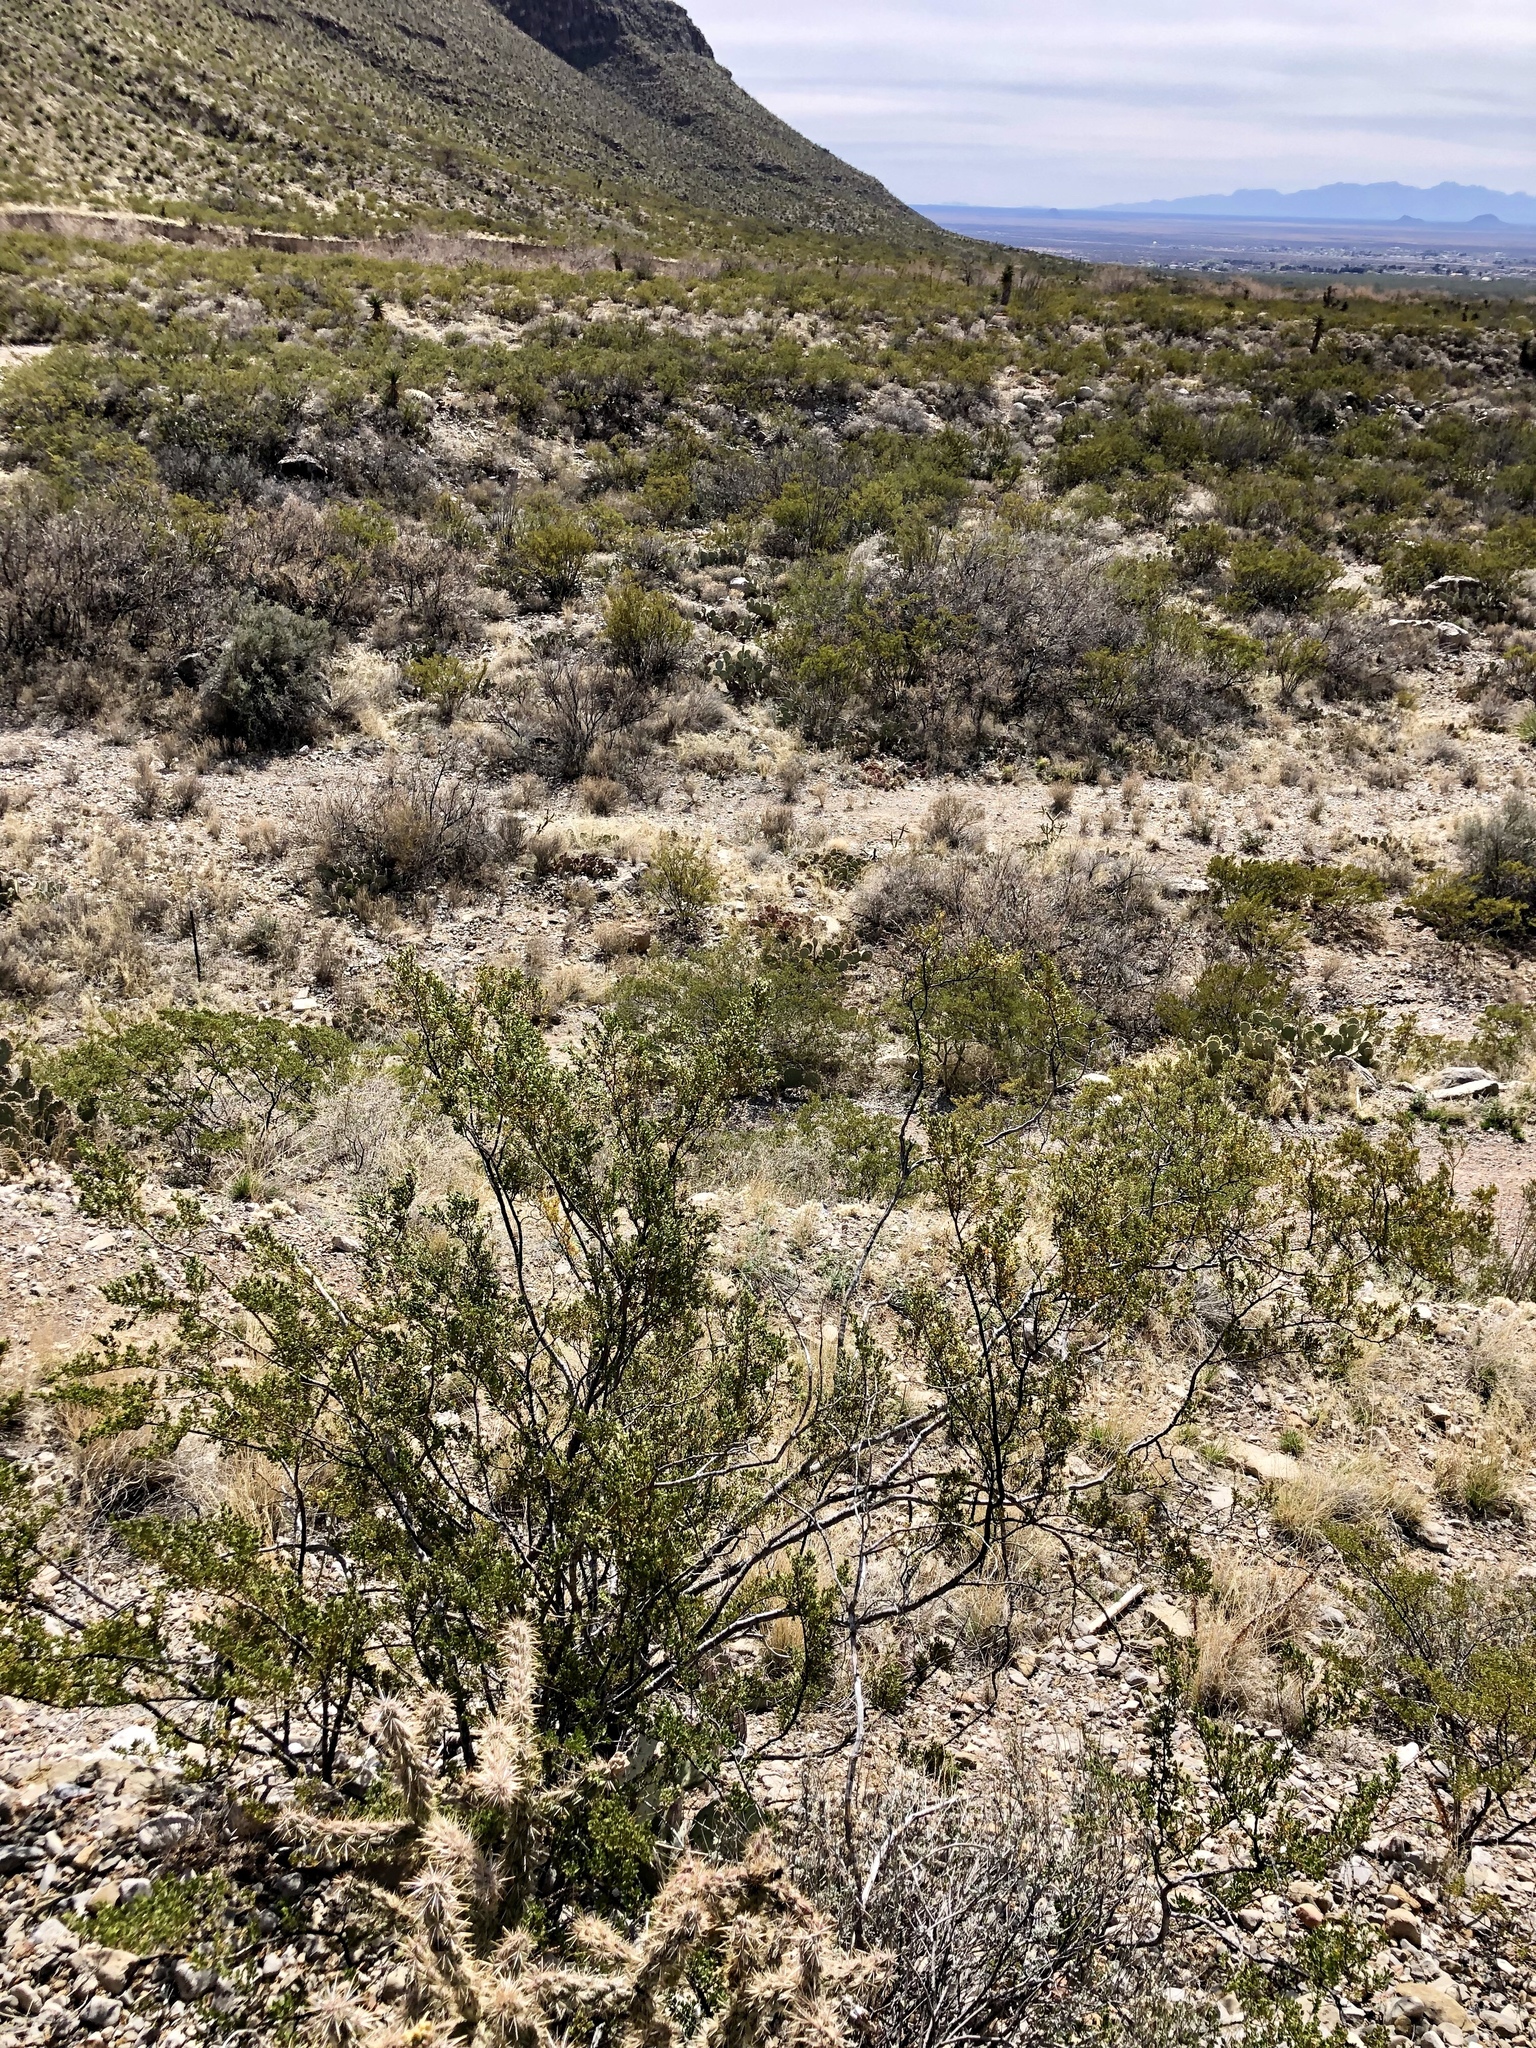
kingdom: Plantae
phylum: Tracheophyta
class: Magnoliopsida
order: Zygophyllales
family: Zygophyllaceae
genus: Larrea
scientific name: Larrea tridentata
